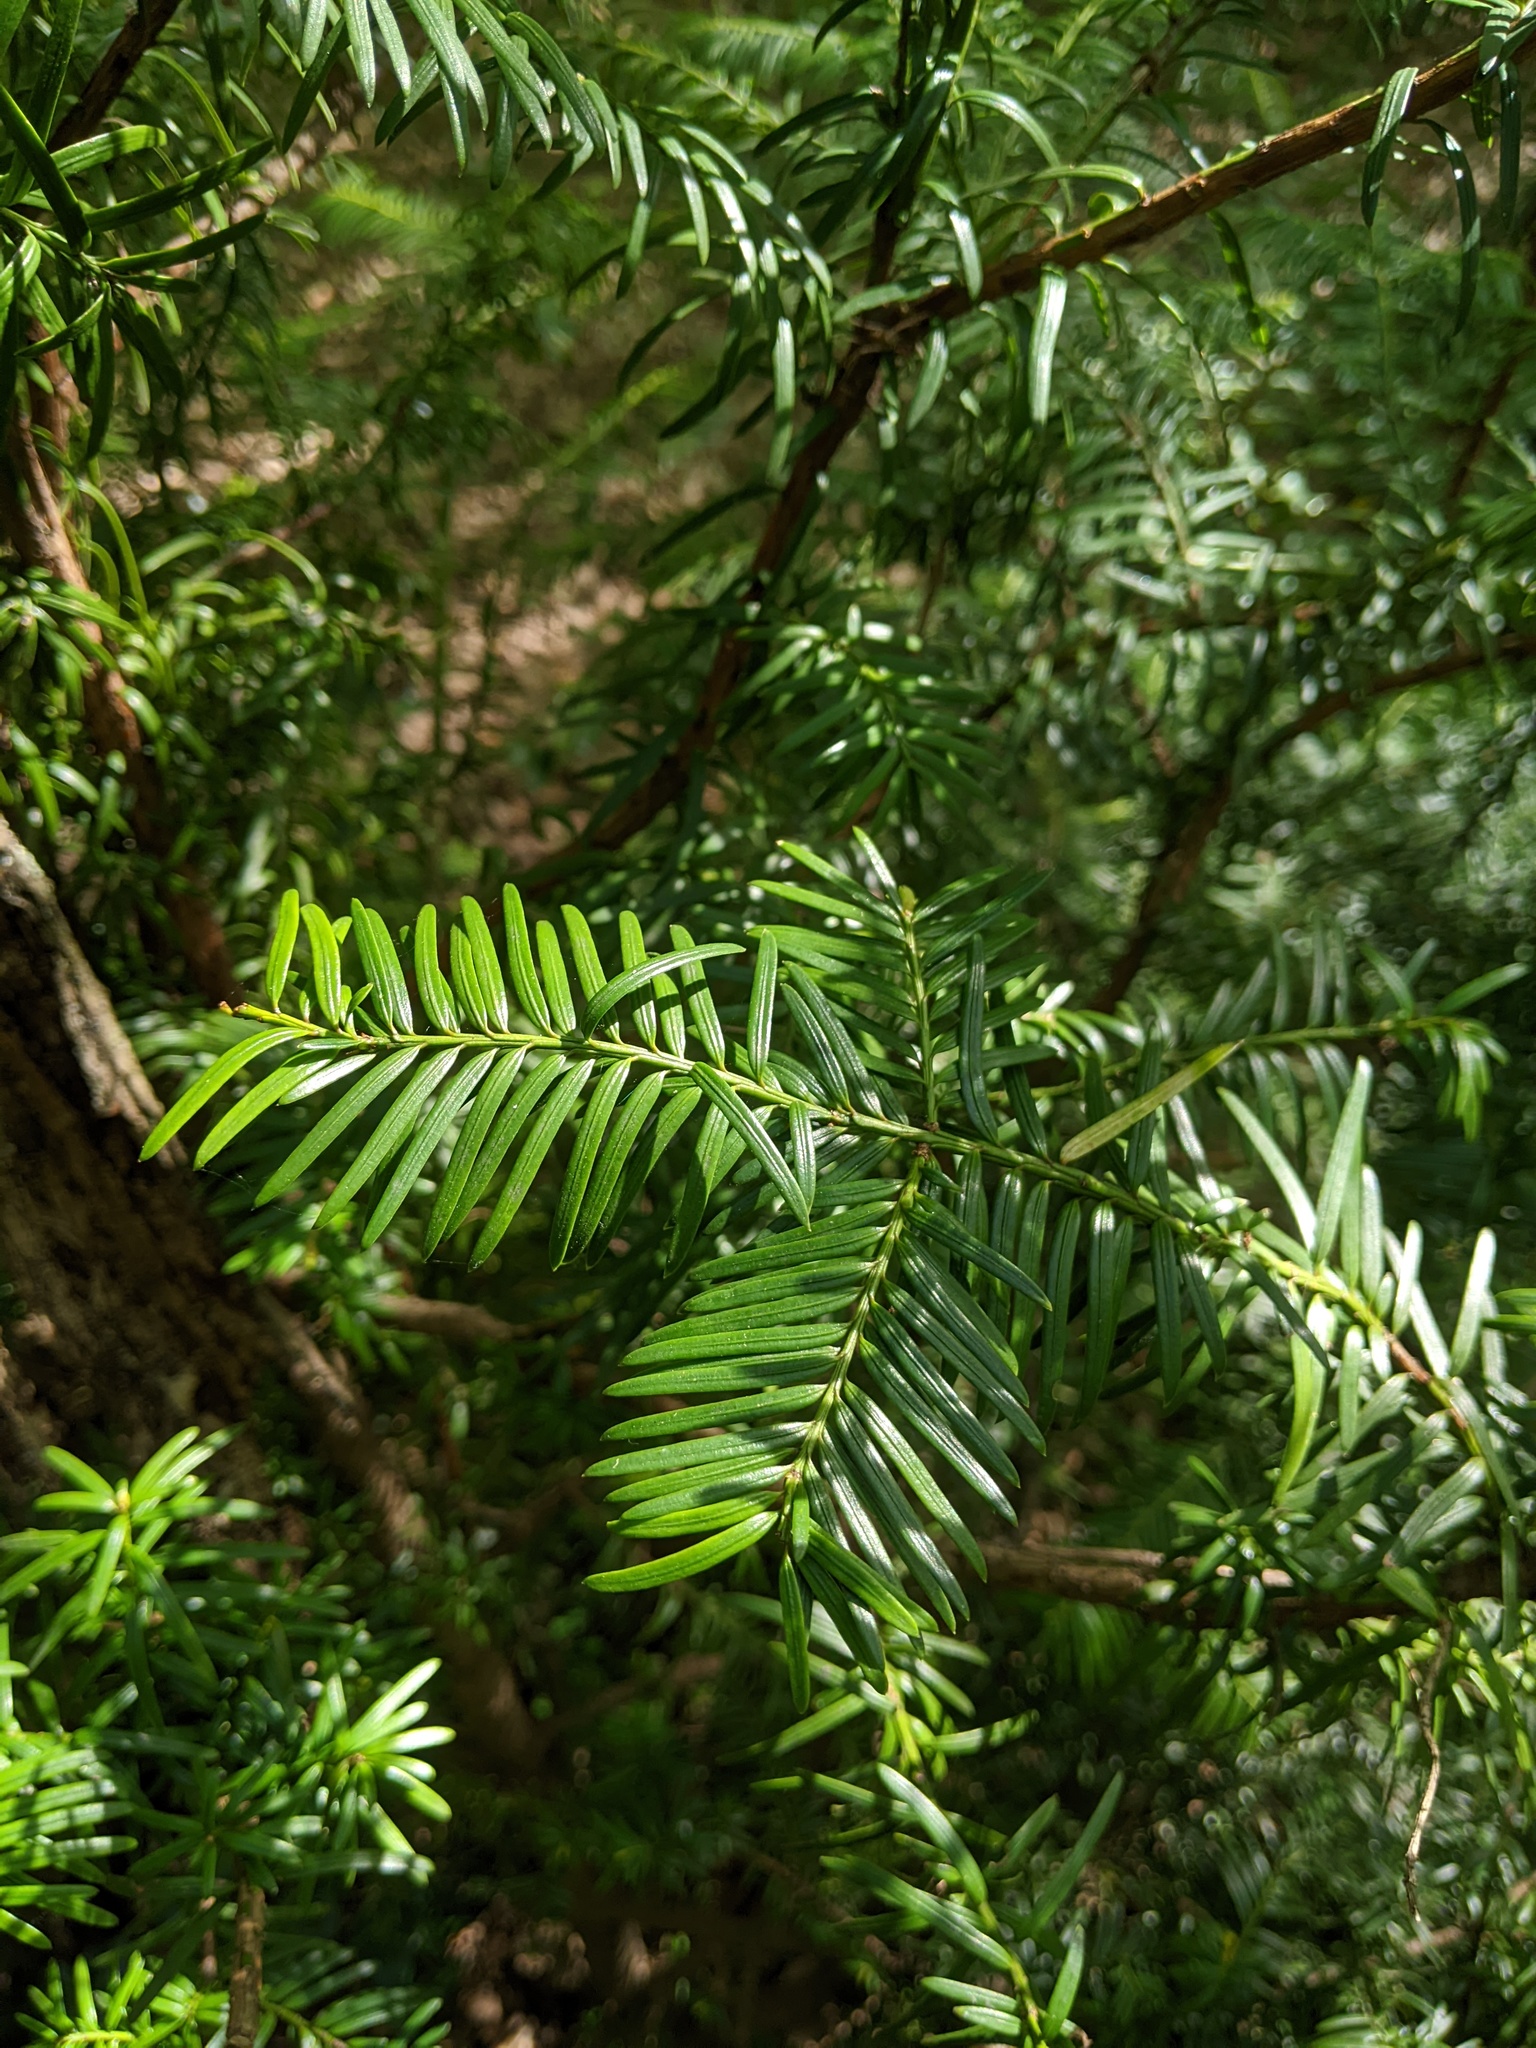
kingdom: Plantae
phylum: Tracheophyta
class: Pinopsida
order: Pinales
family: Taxaceae
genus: Taxus
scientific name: Taxus baccata
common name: Yew
